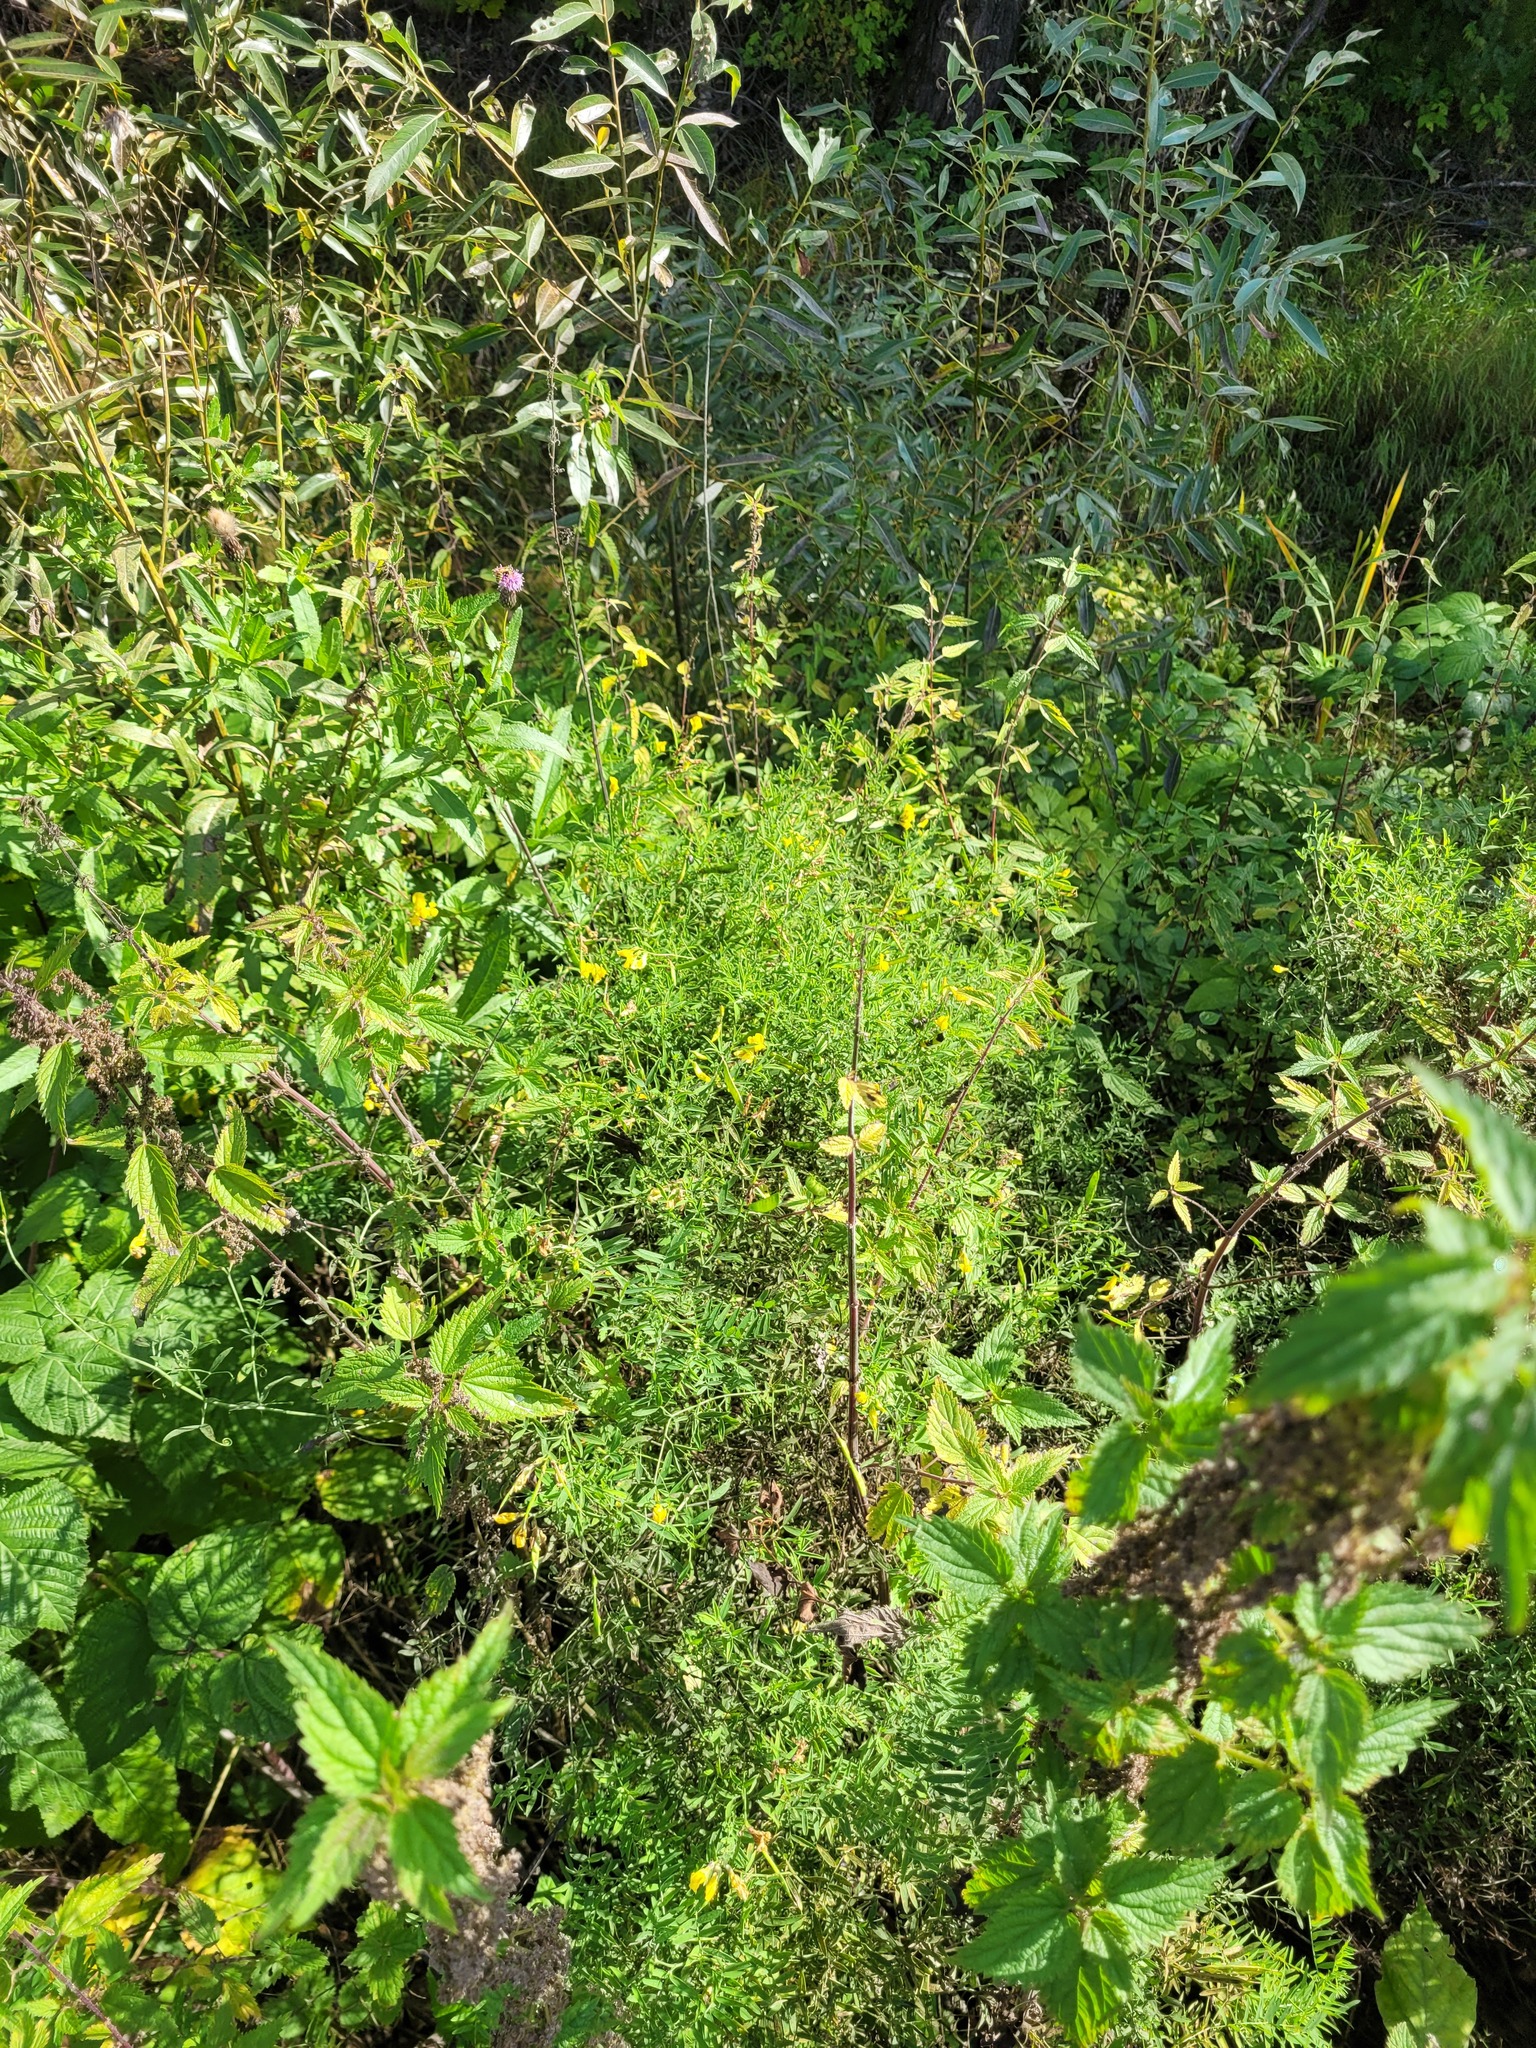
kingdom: Plantae
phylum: Tracheophyta
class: Magnoliopsida
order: Rosales
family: Urticaceae
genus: Urtica
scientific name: Urtica dioica
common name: Common nettle
